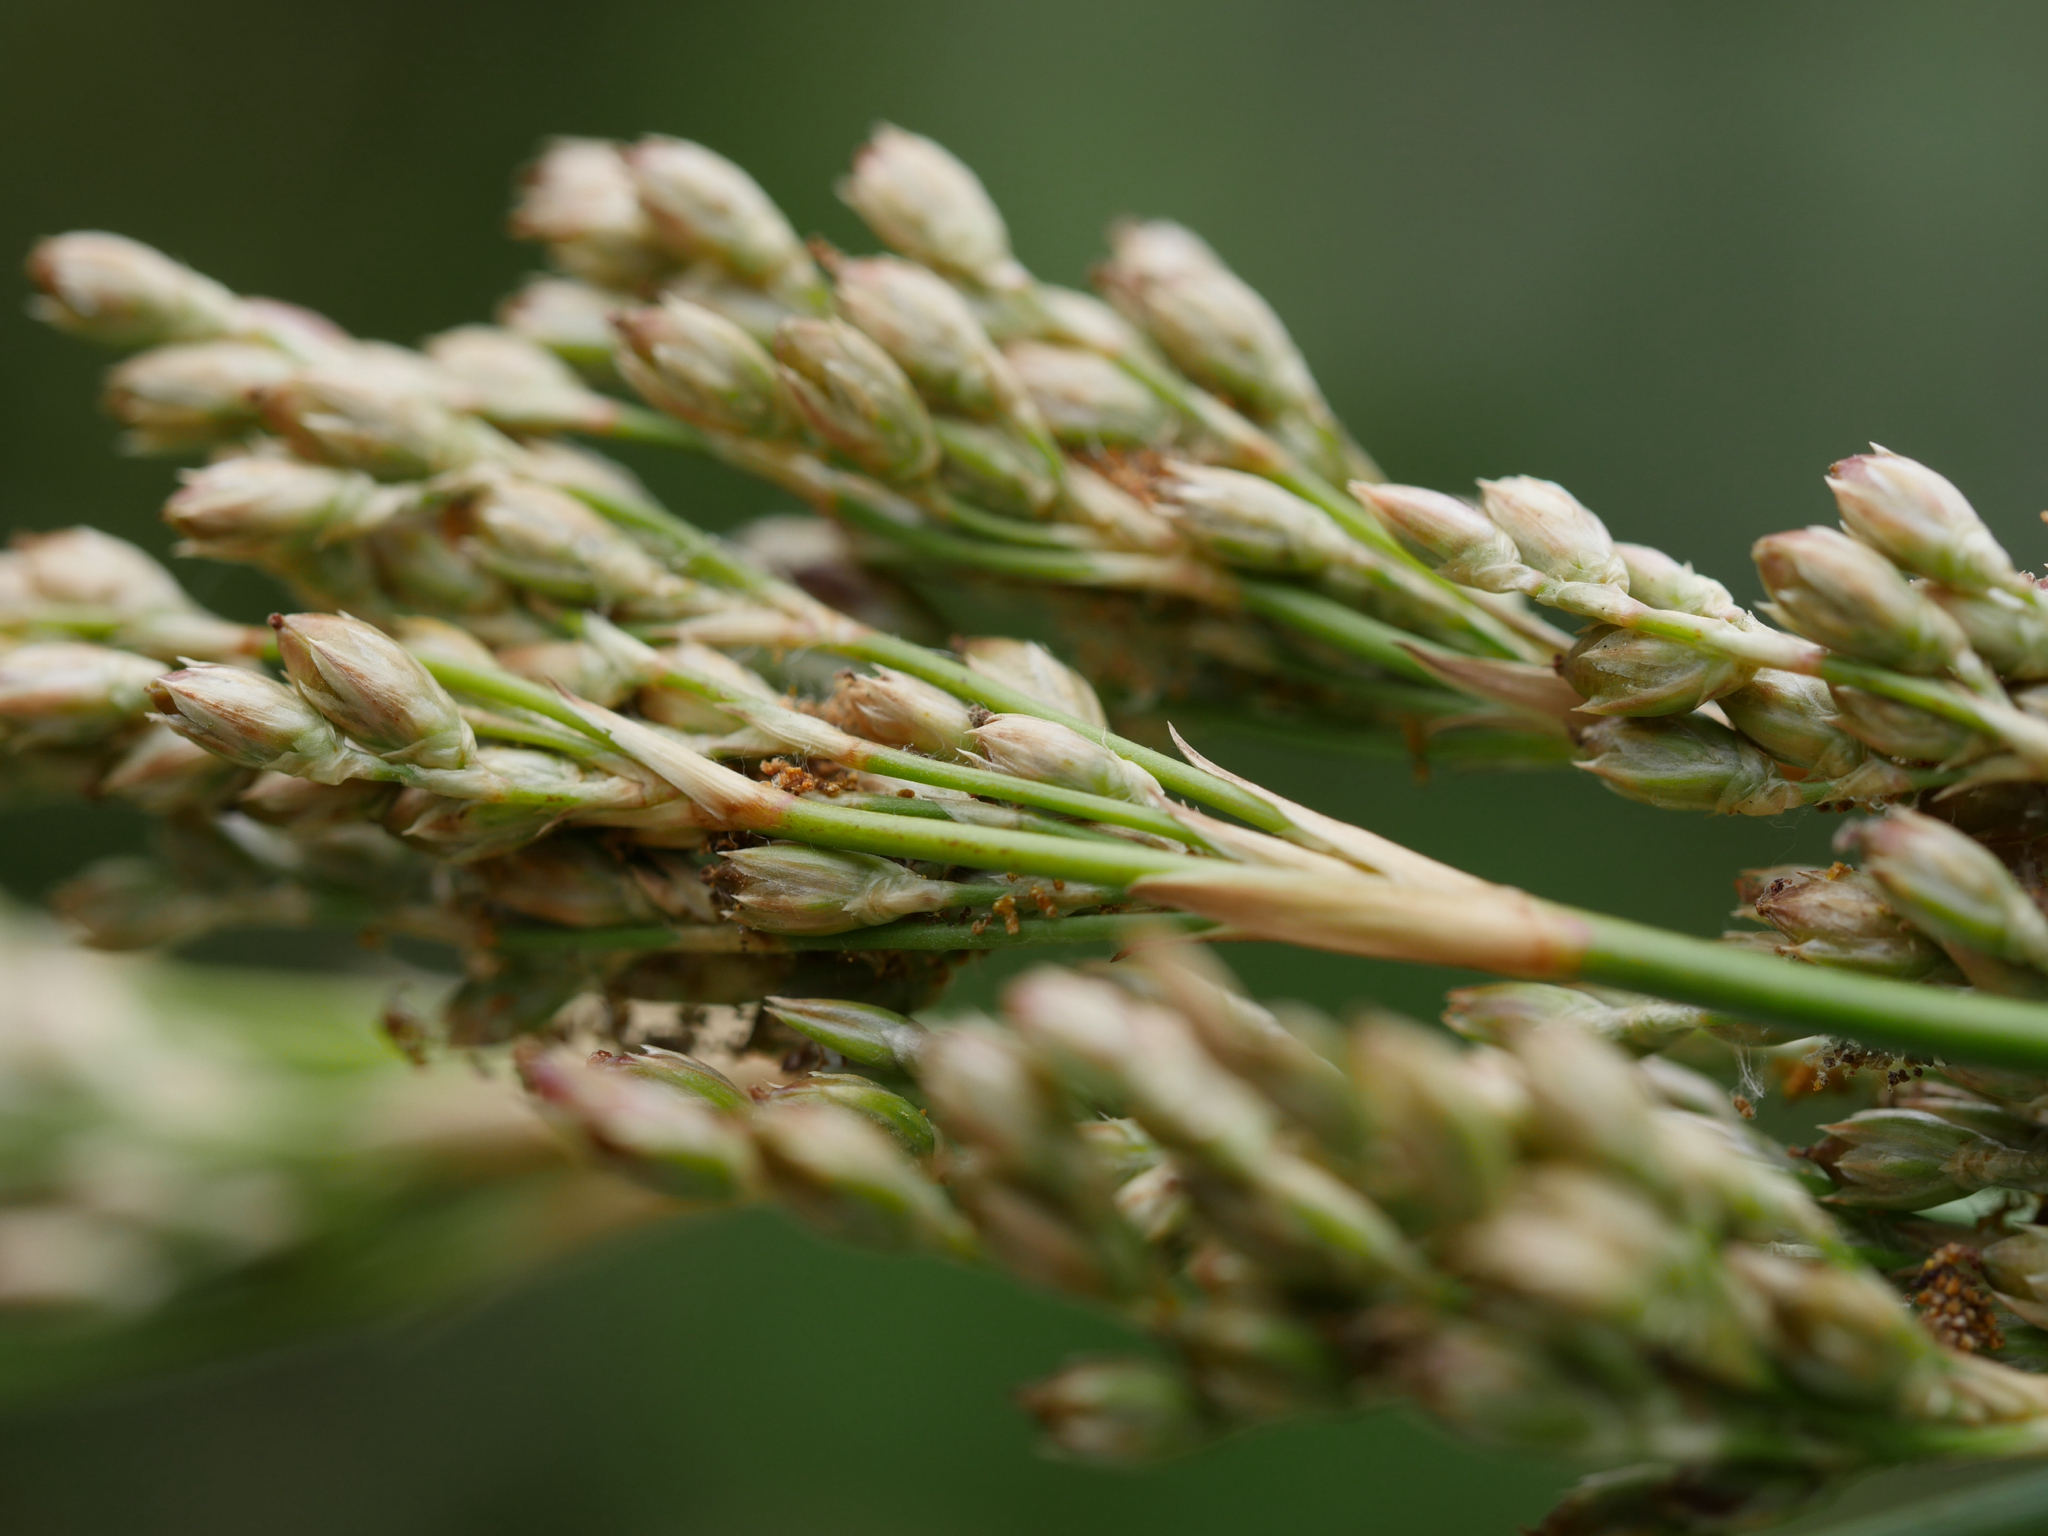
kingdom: Plantae
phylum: Tracheophyta
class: Liliopsida
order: Poales
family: Juncaceae
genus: Juncus
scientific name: Juncus pallidus
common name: Great soft-rush
